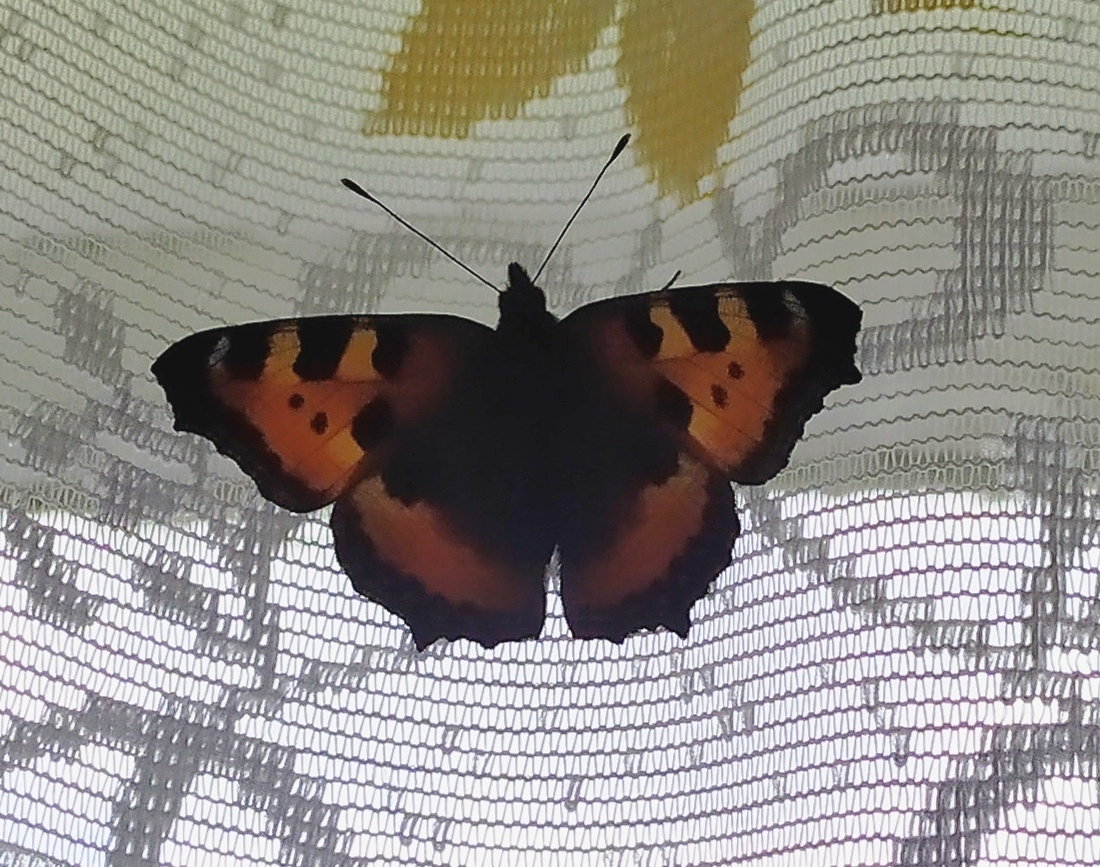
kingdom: Animalia
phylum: Arthropoda
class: Insecta
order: Lepidoptera
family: Nymphalidae
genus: Aglais
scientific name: Aglais urticae
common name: Small tortoiseshell
